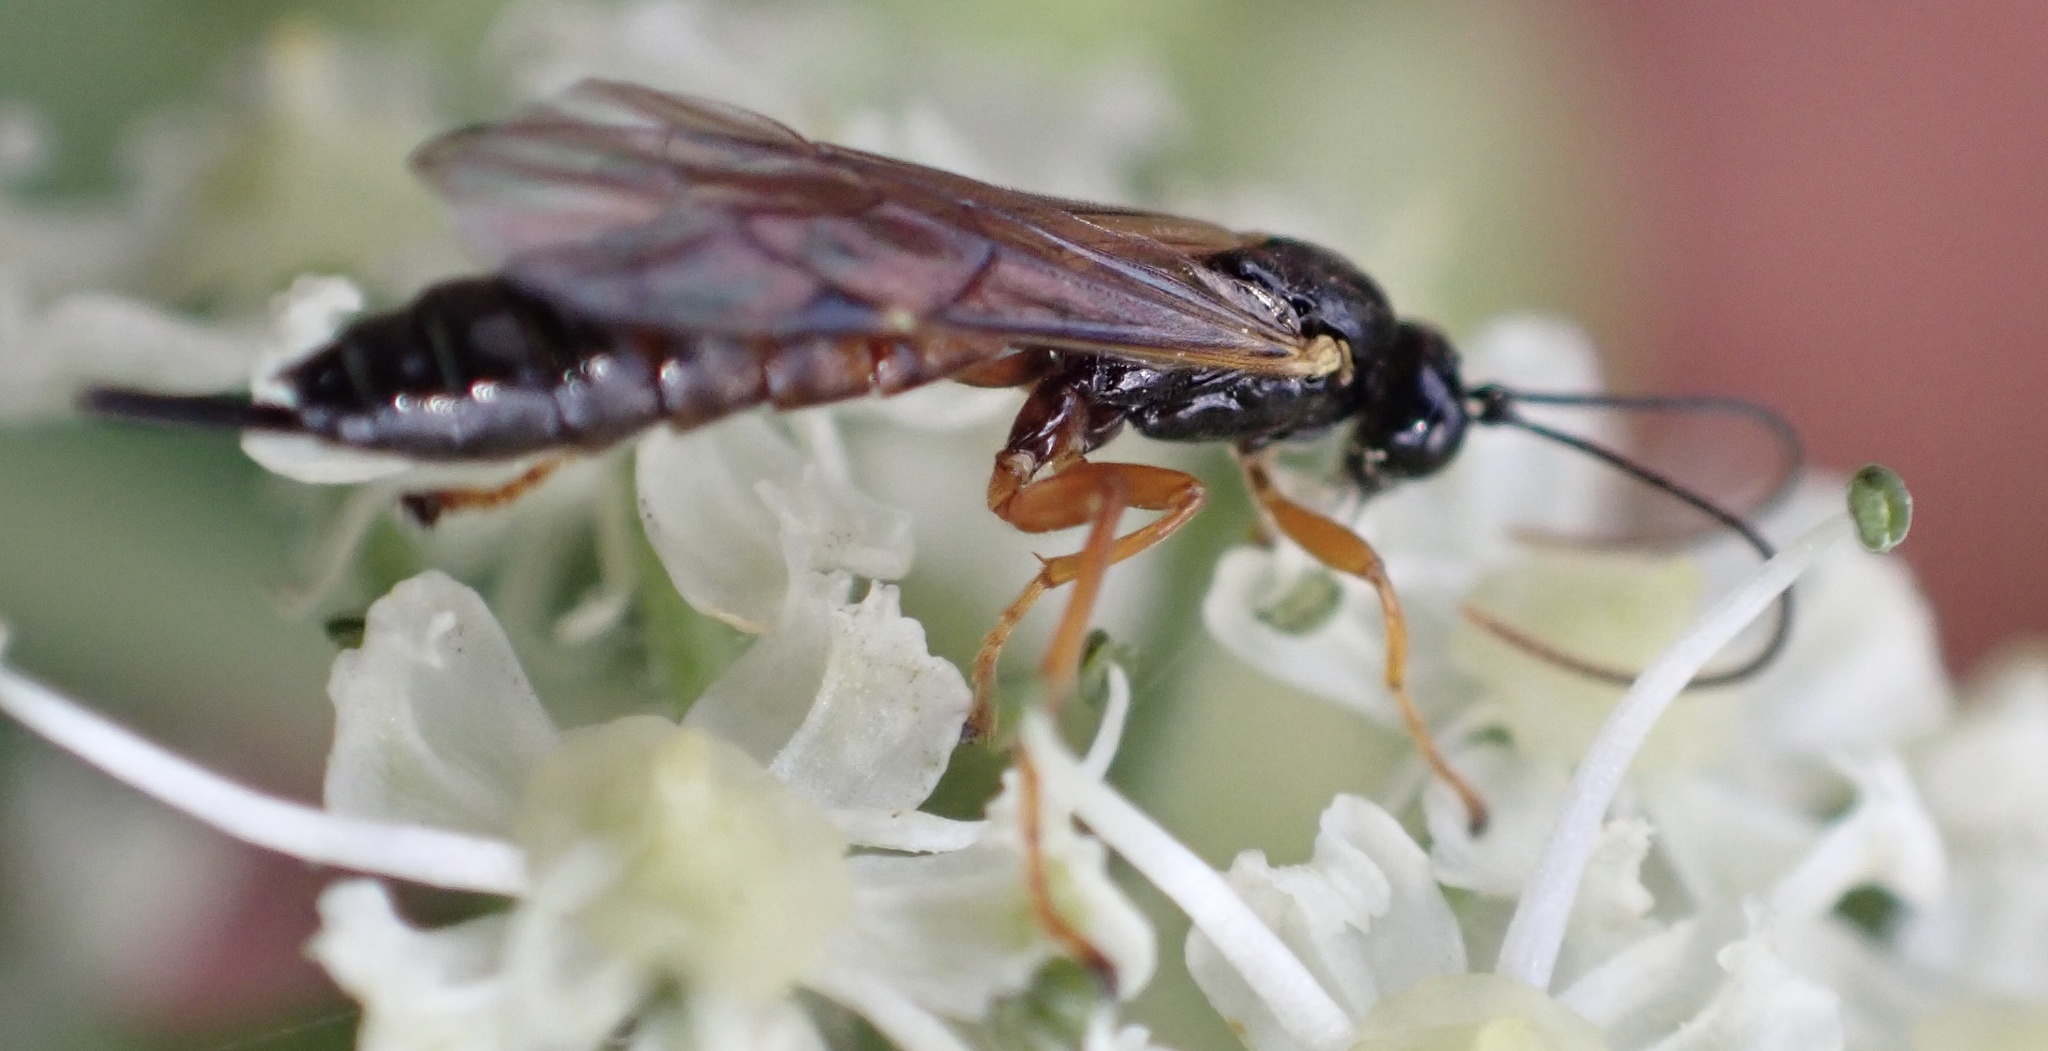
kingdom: Animalia
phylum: Arthropoda
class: Insecta
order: Hymenoptera
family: Ichneumonidae
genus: Endromopoda
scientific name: Endromopoda arundinator
